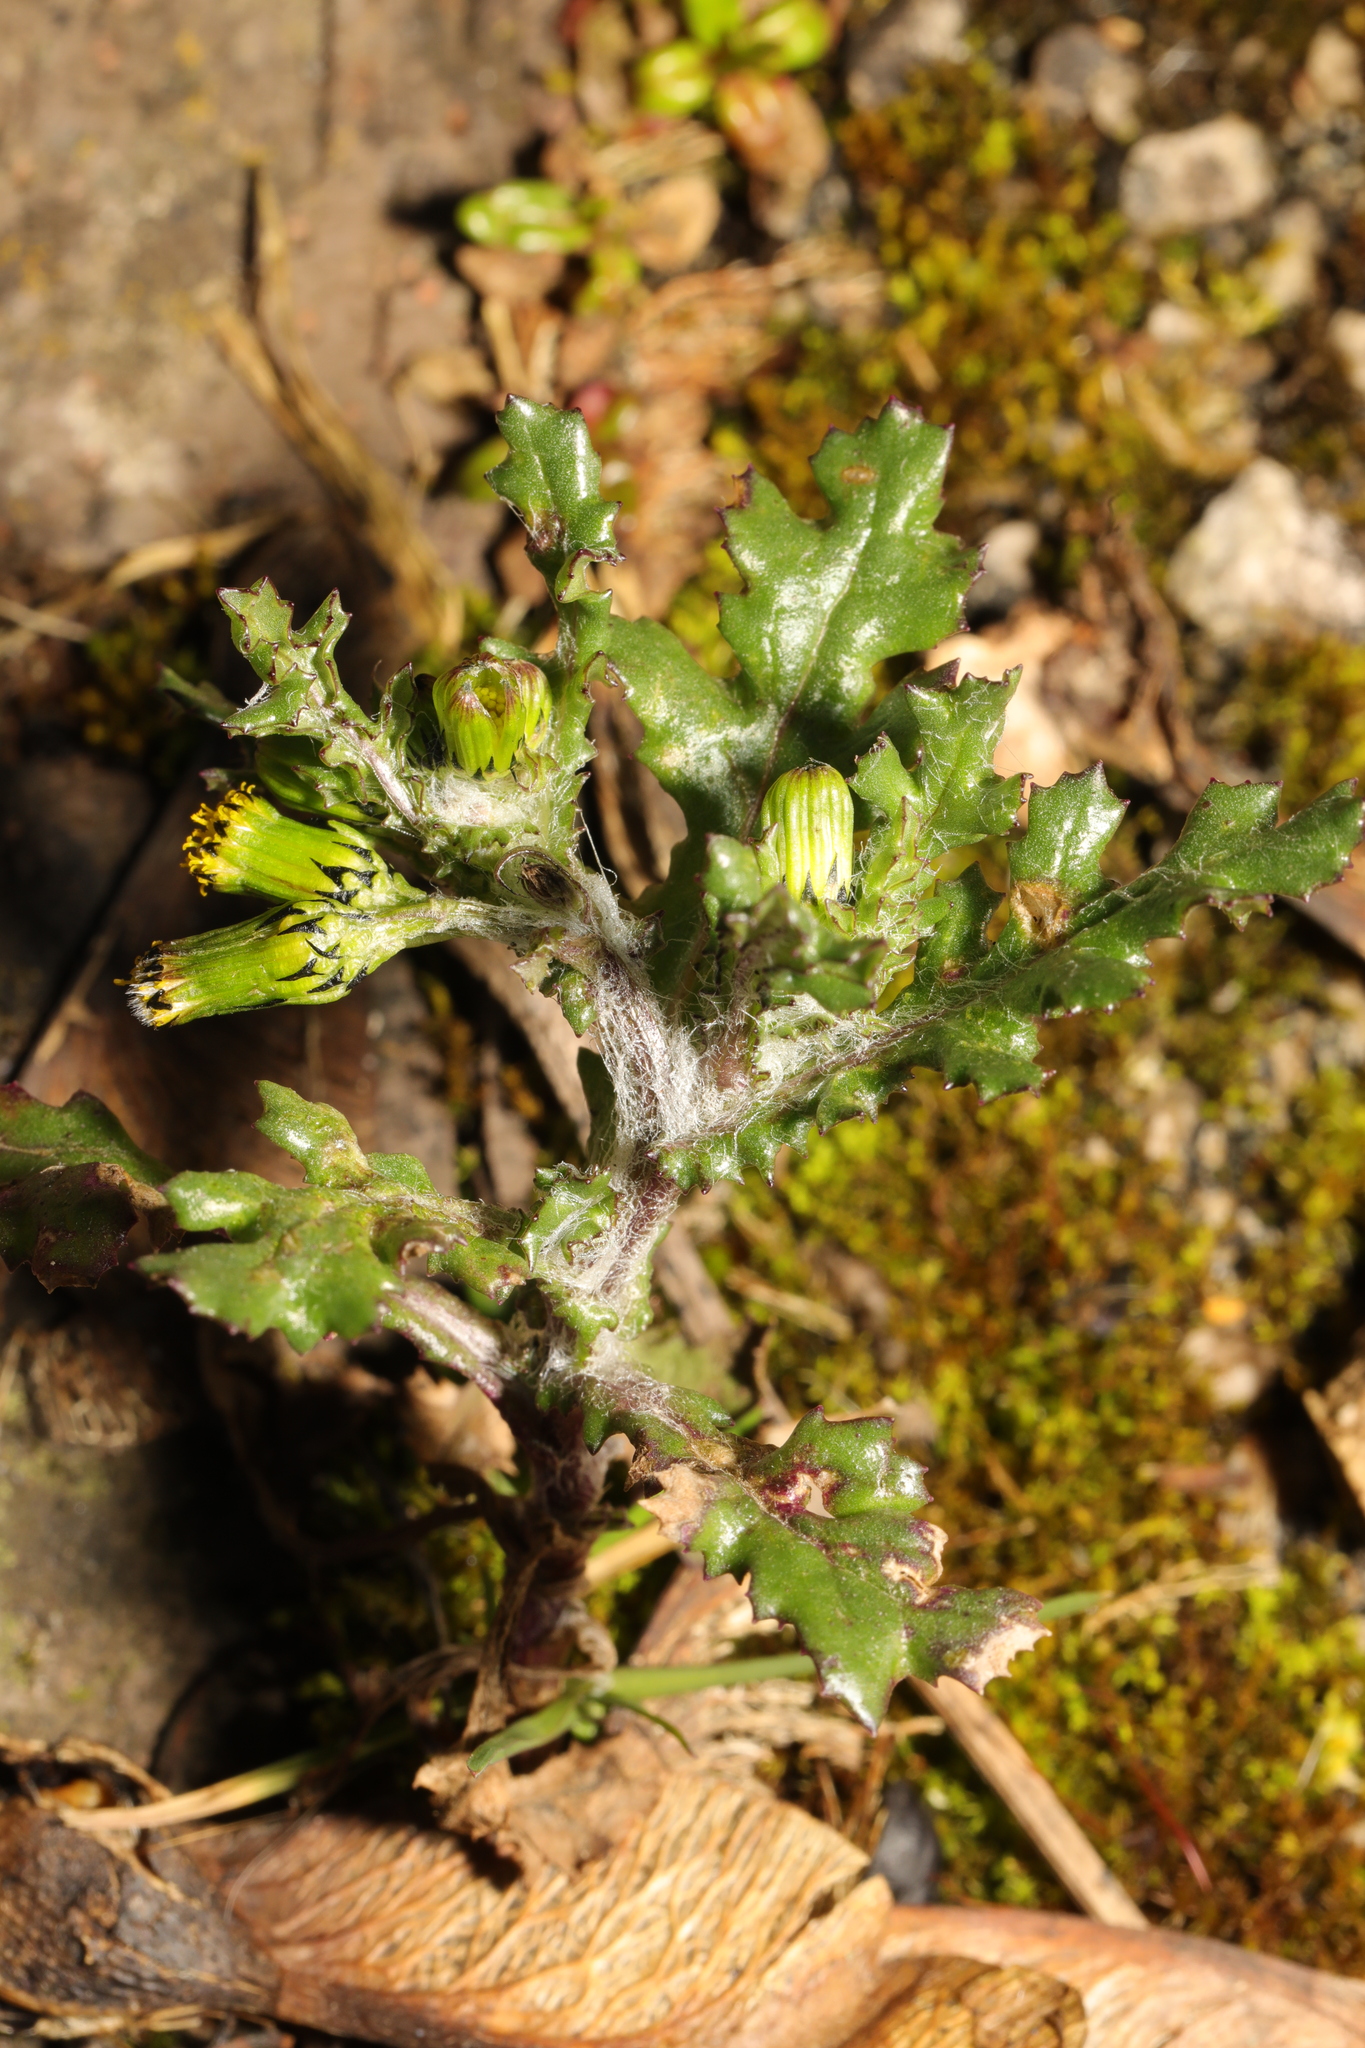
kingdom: Plantae
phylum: Tracheophyta
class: Magnoliopsida
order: Asterales
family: Asteraceae
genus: Senecio
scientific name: Senecio vulgaris
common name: Old-man-in-the-spring
